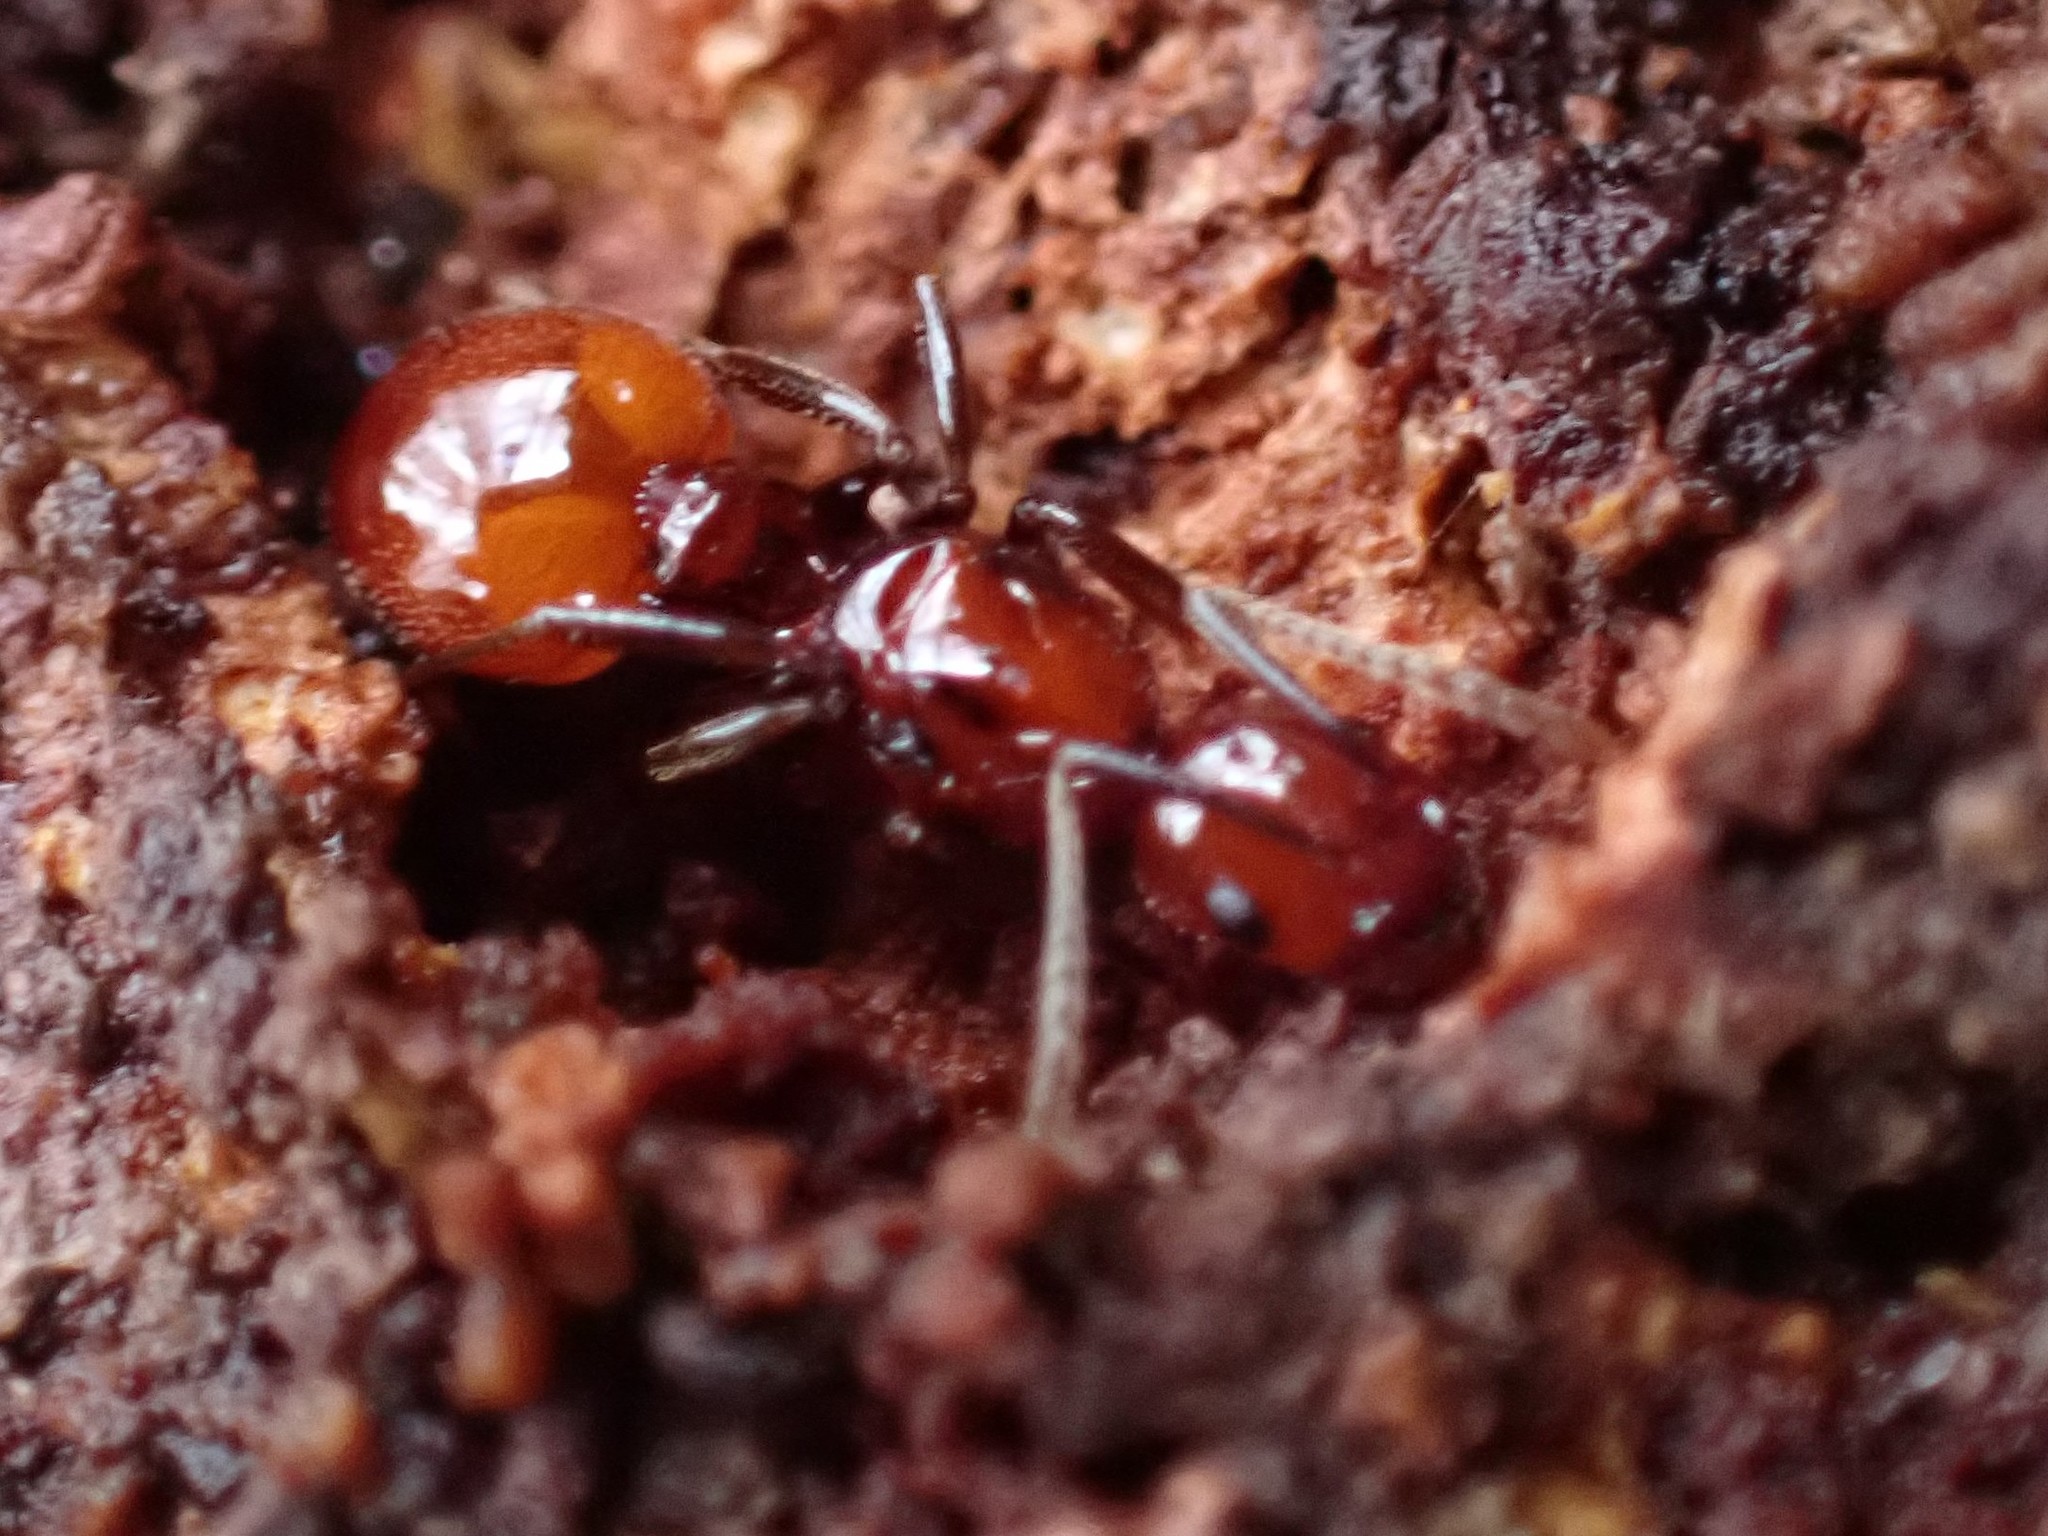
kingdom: Animalia
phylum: Arthropoda
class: Insecta
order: Hymenoptera
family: Formicidae
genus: Aphaenogaster
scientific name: Aphaenogaster tennesseensis
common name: Tennessee thread-waisted ant
